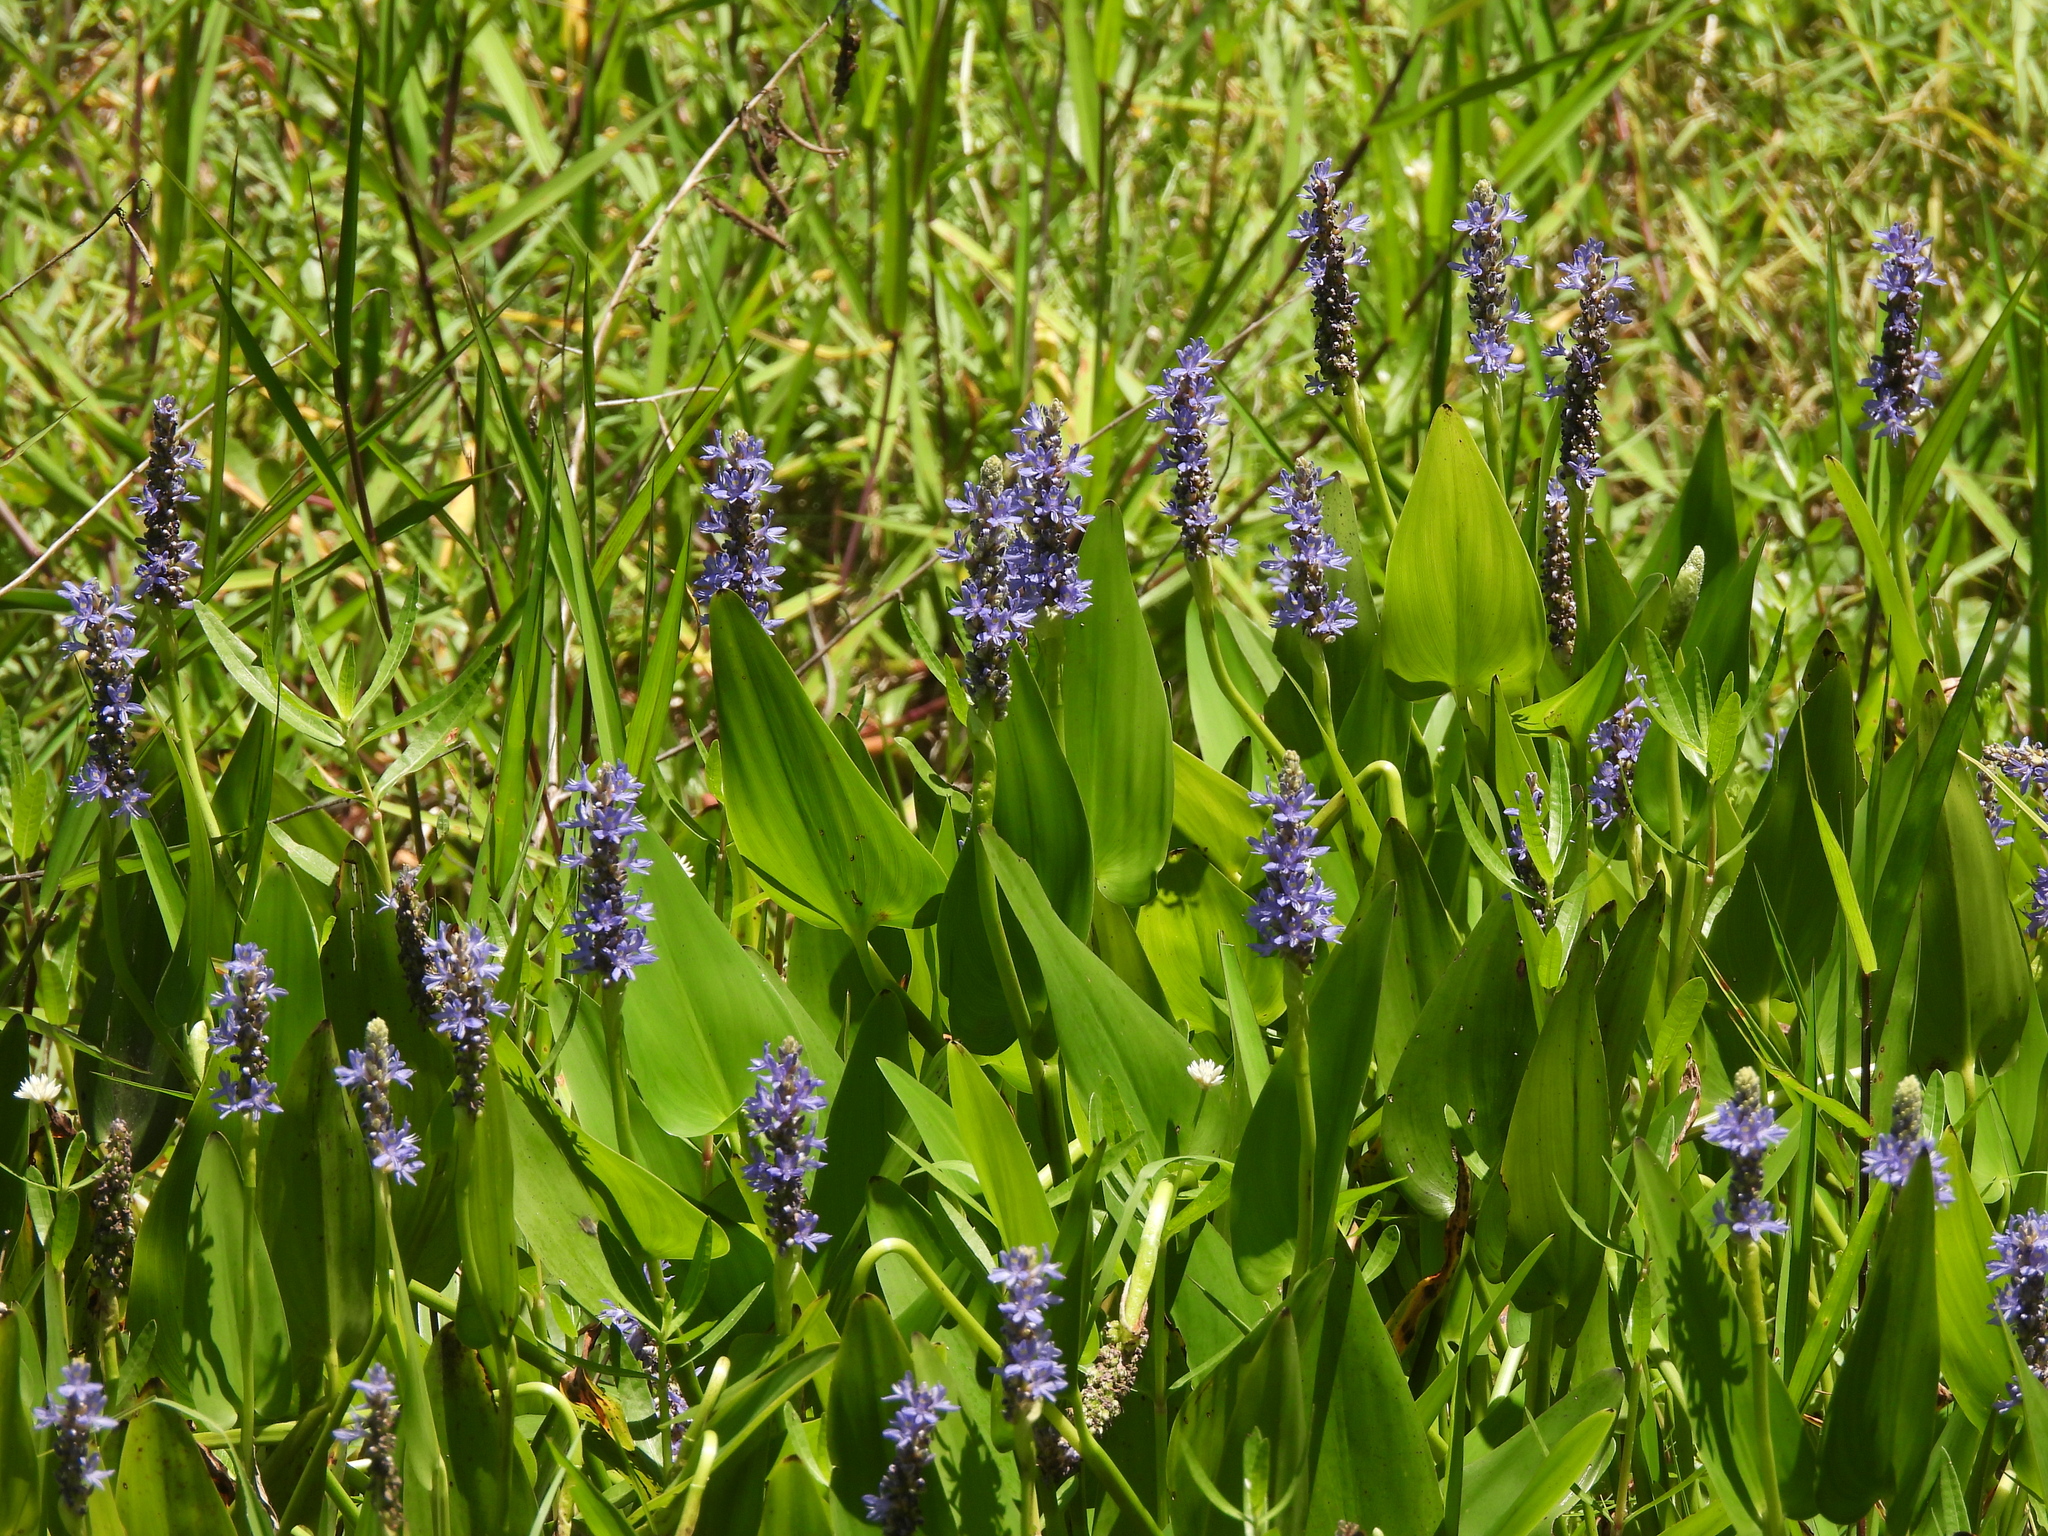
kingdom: Plantae
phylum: Tracheophyta
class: Liliopsida
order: Commelinales
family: Pontederiaceae
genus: Pontederia
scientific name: Pontederia cordata
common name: Pickerelweed
